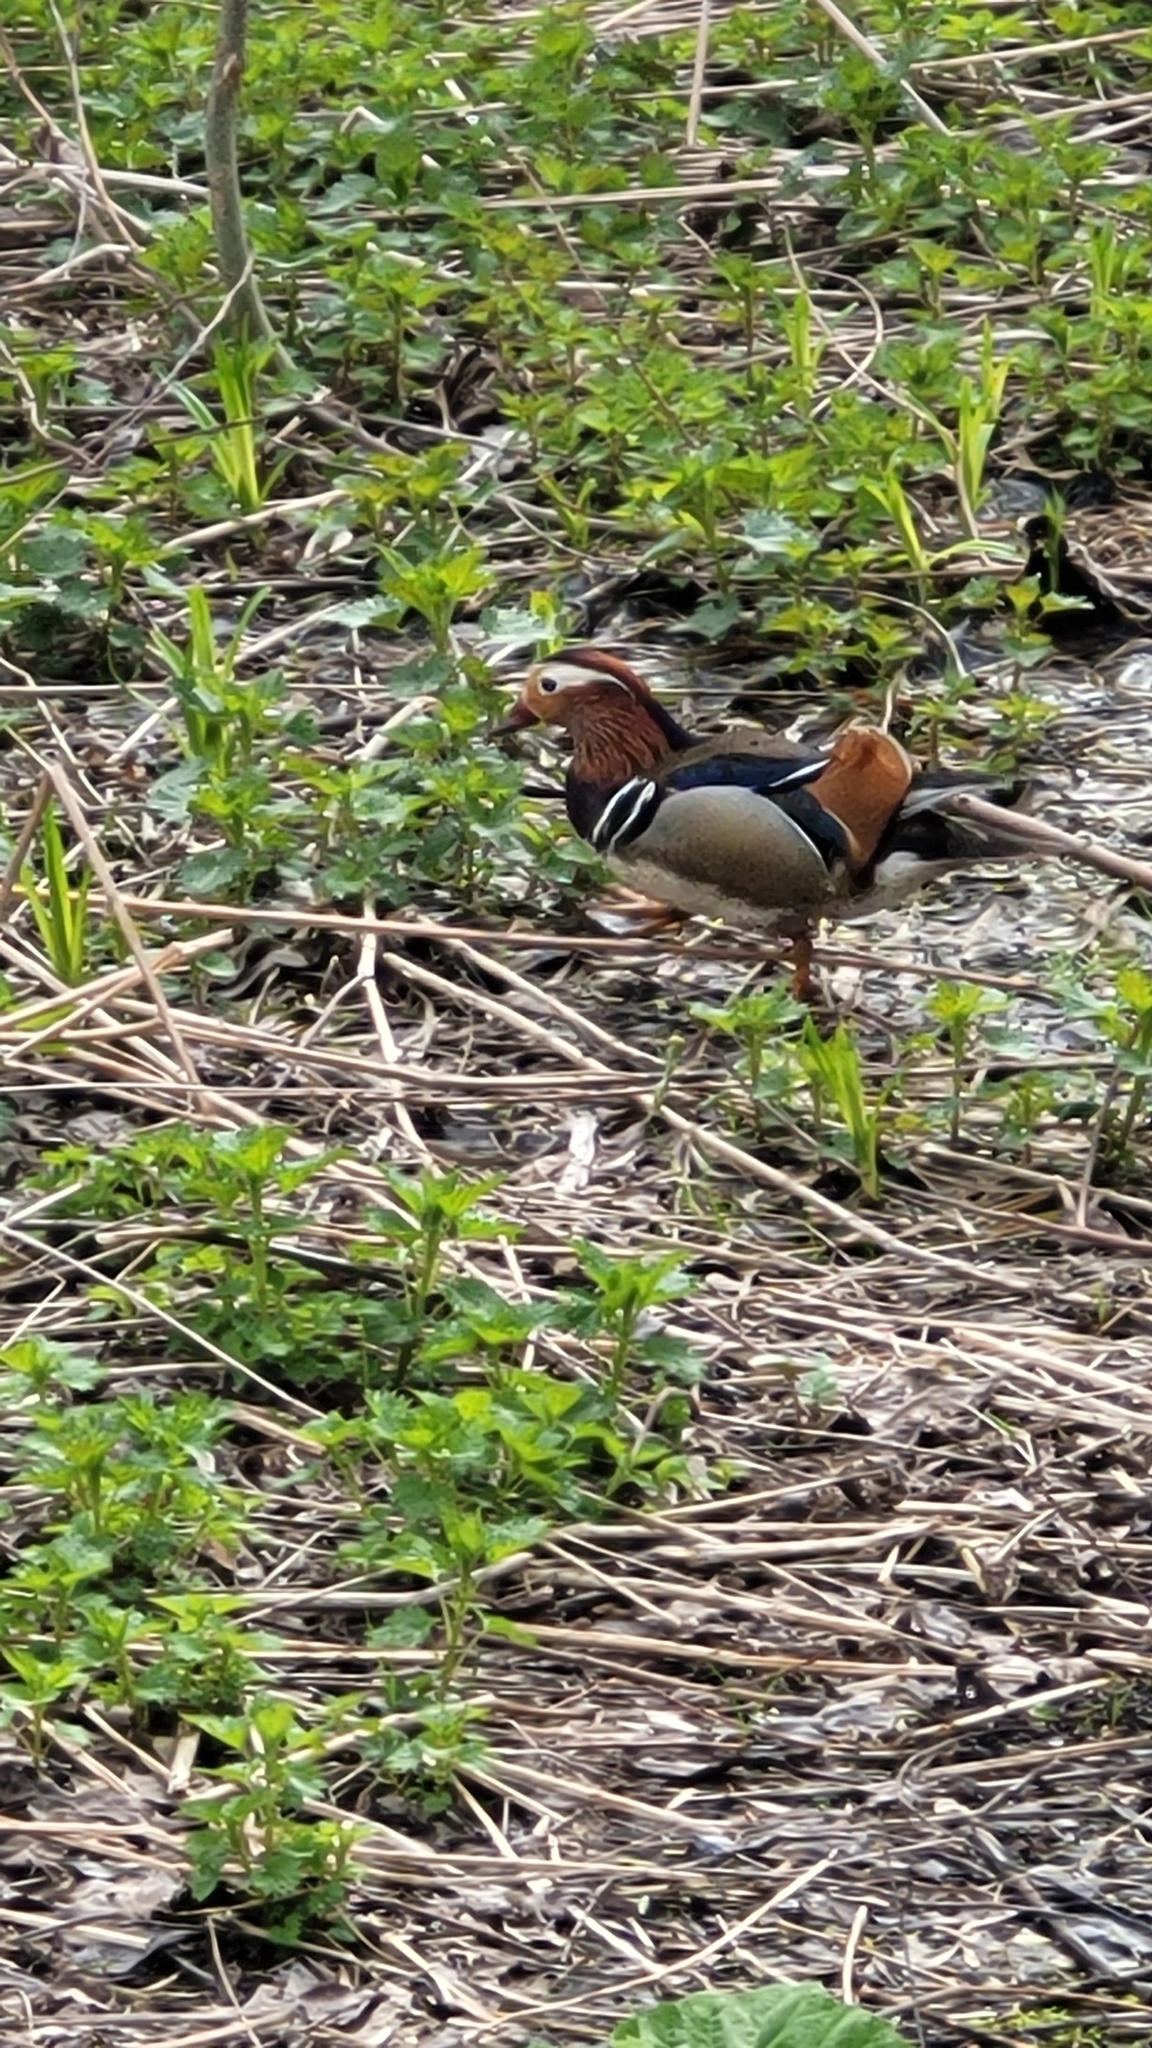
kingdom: Animalia
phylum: Chordata
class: Aves
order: Anseriformes
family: Anatidae
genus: Aix
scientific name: Aix galericulata
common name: Mandarin duck
